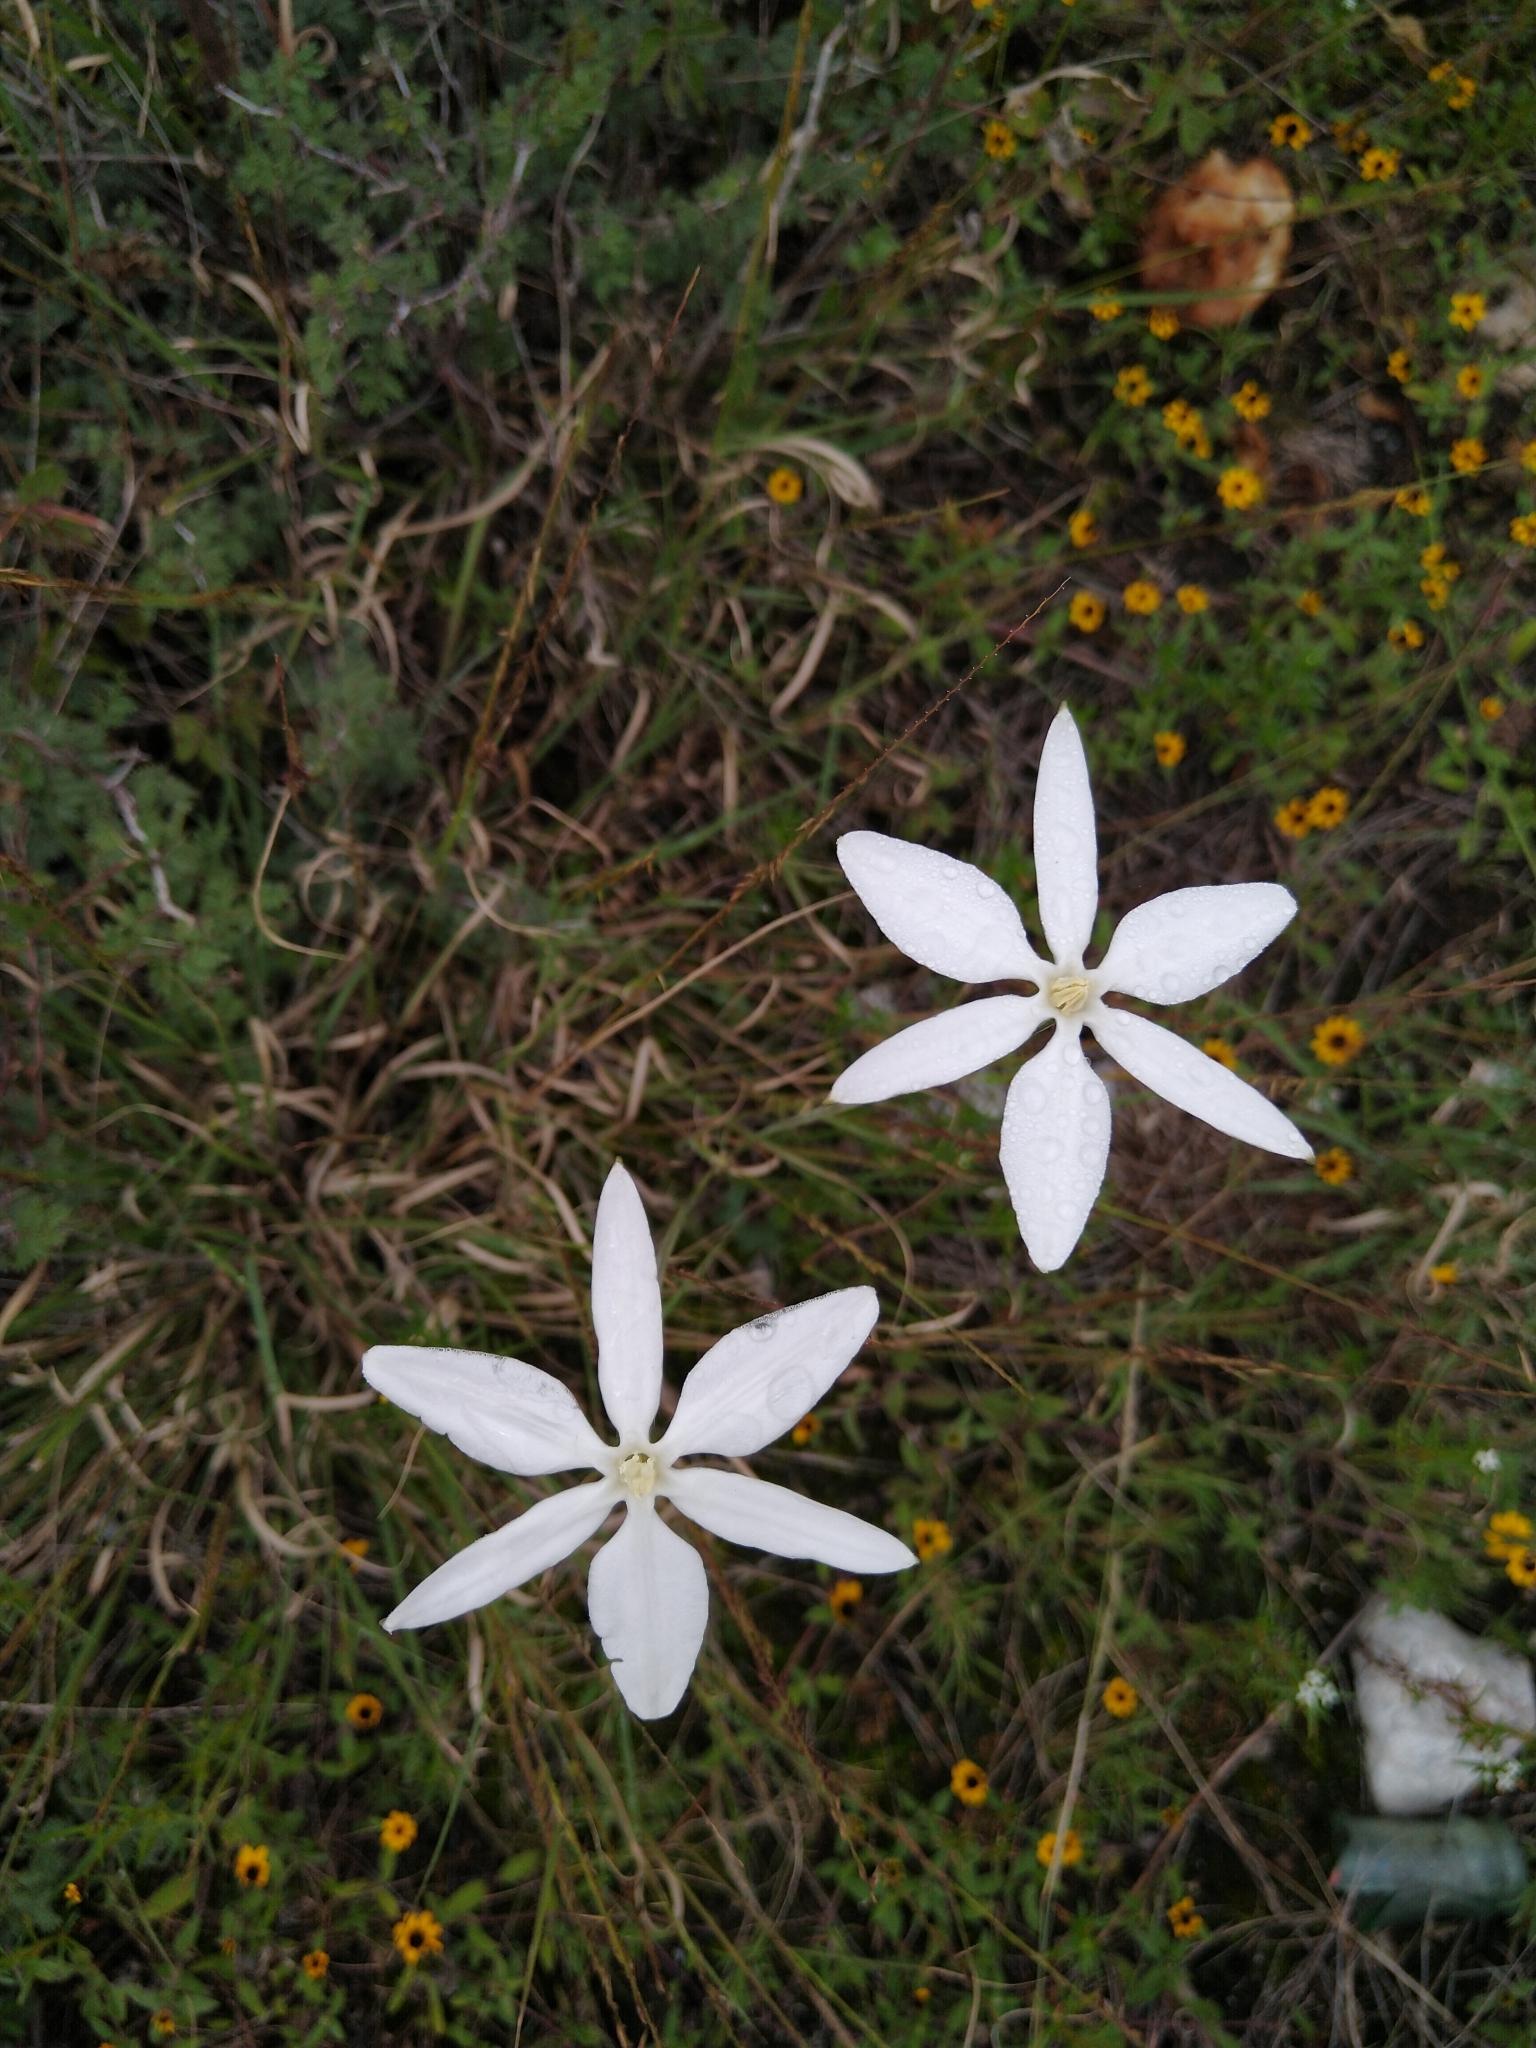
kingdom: Plantae
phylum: Tracheophyta
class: Liliopsida
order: Asparagales
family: Asparagaceae
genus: Milla
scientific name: Milla biflora
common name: Mexican-star
